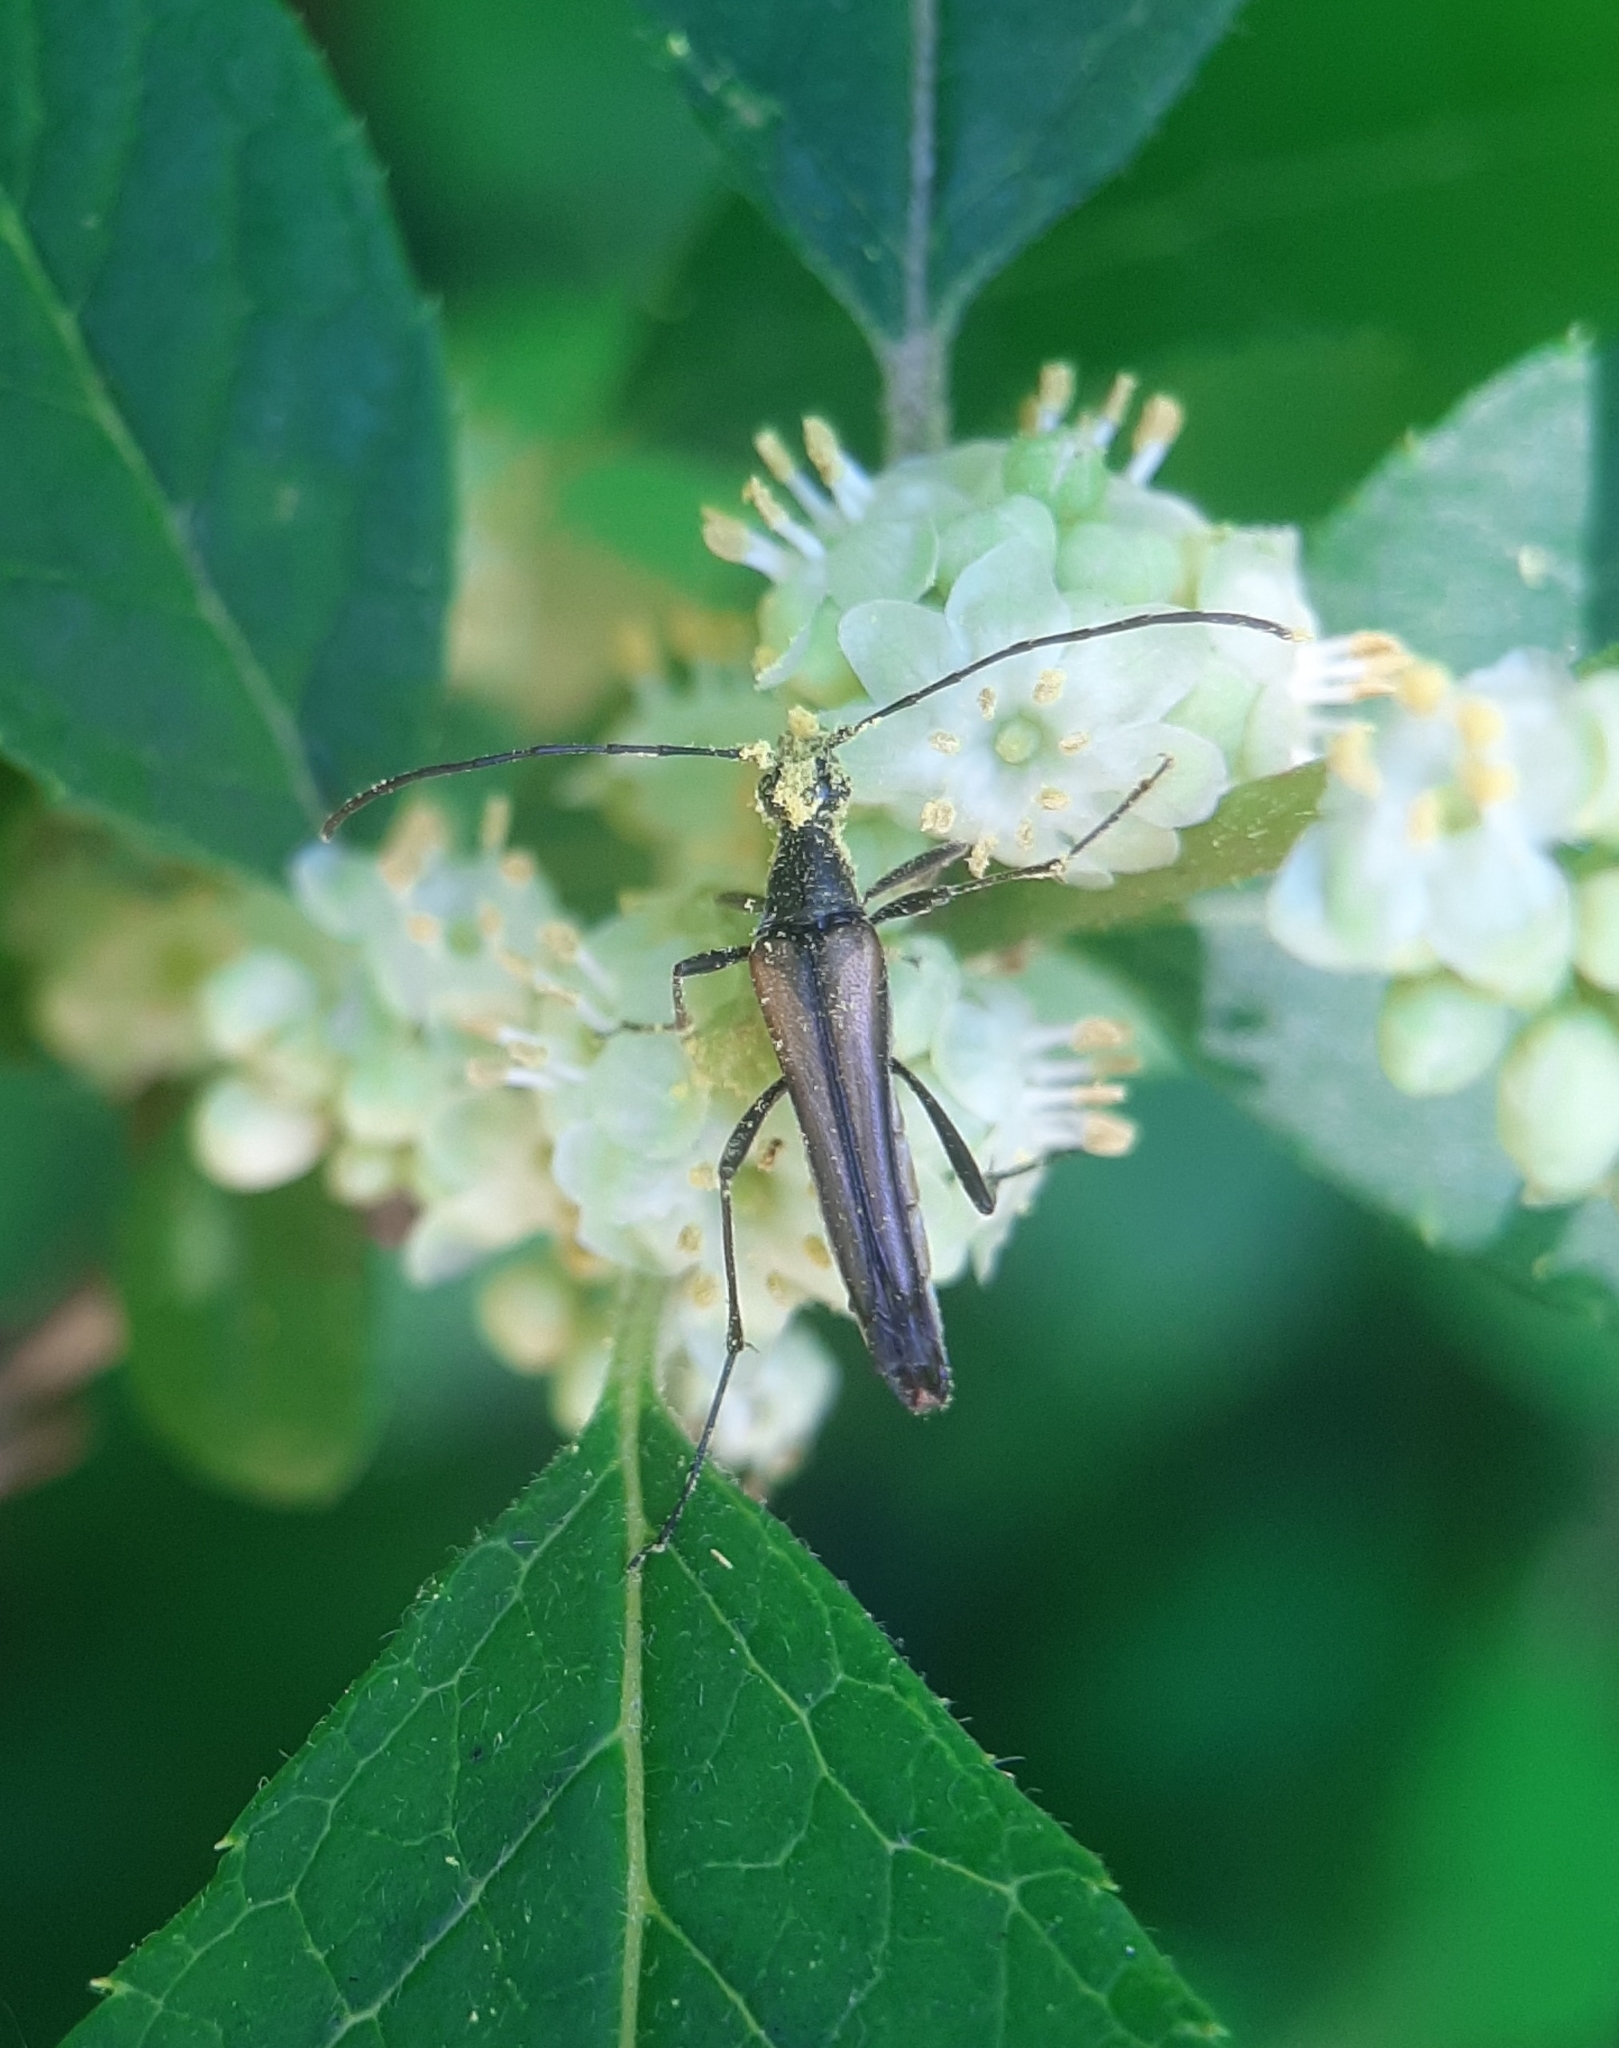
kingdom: Animalia
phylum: Arthropoda
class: Insecta
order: Coleoptera
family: Cerambycidae
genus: Strangalia
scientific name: Strangalia acuminata
